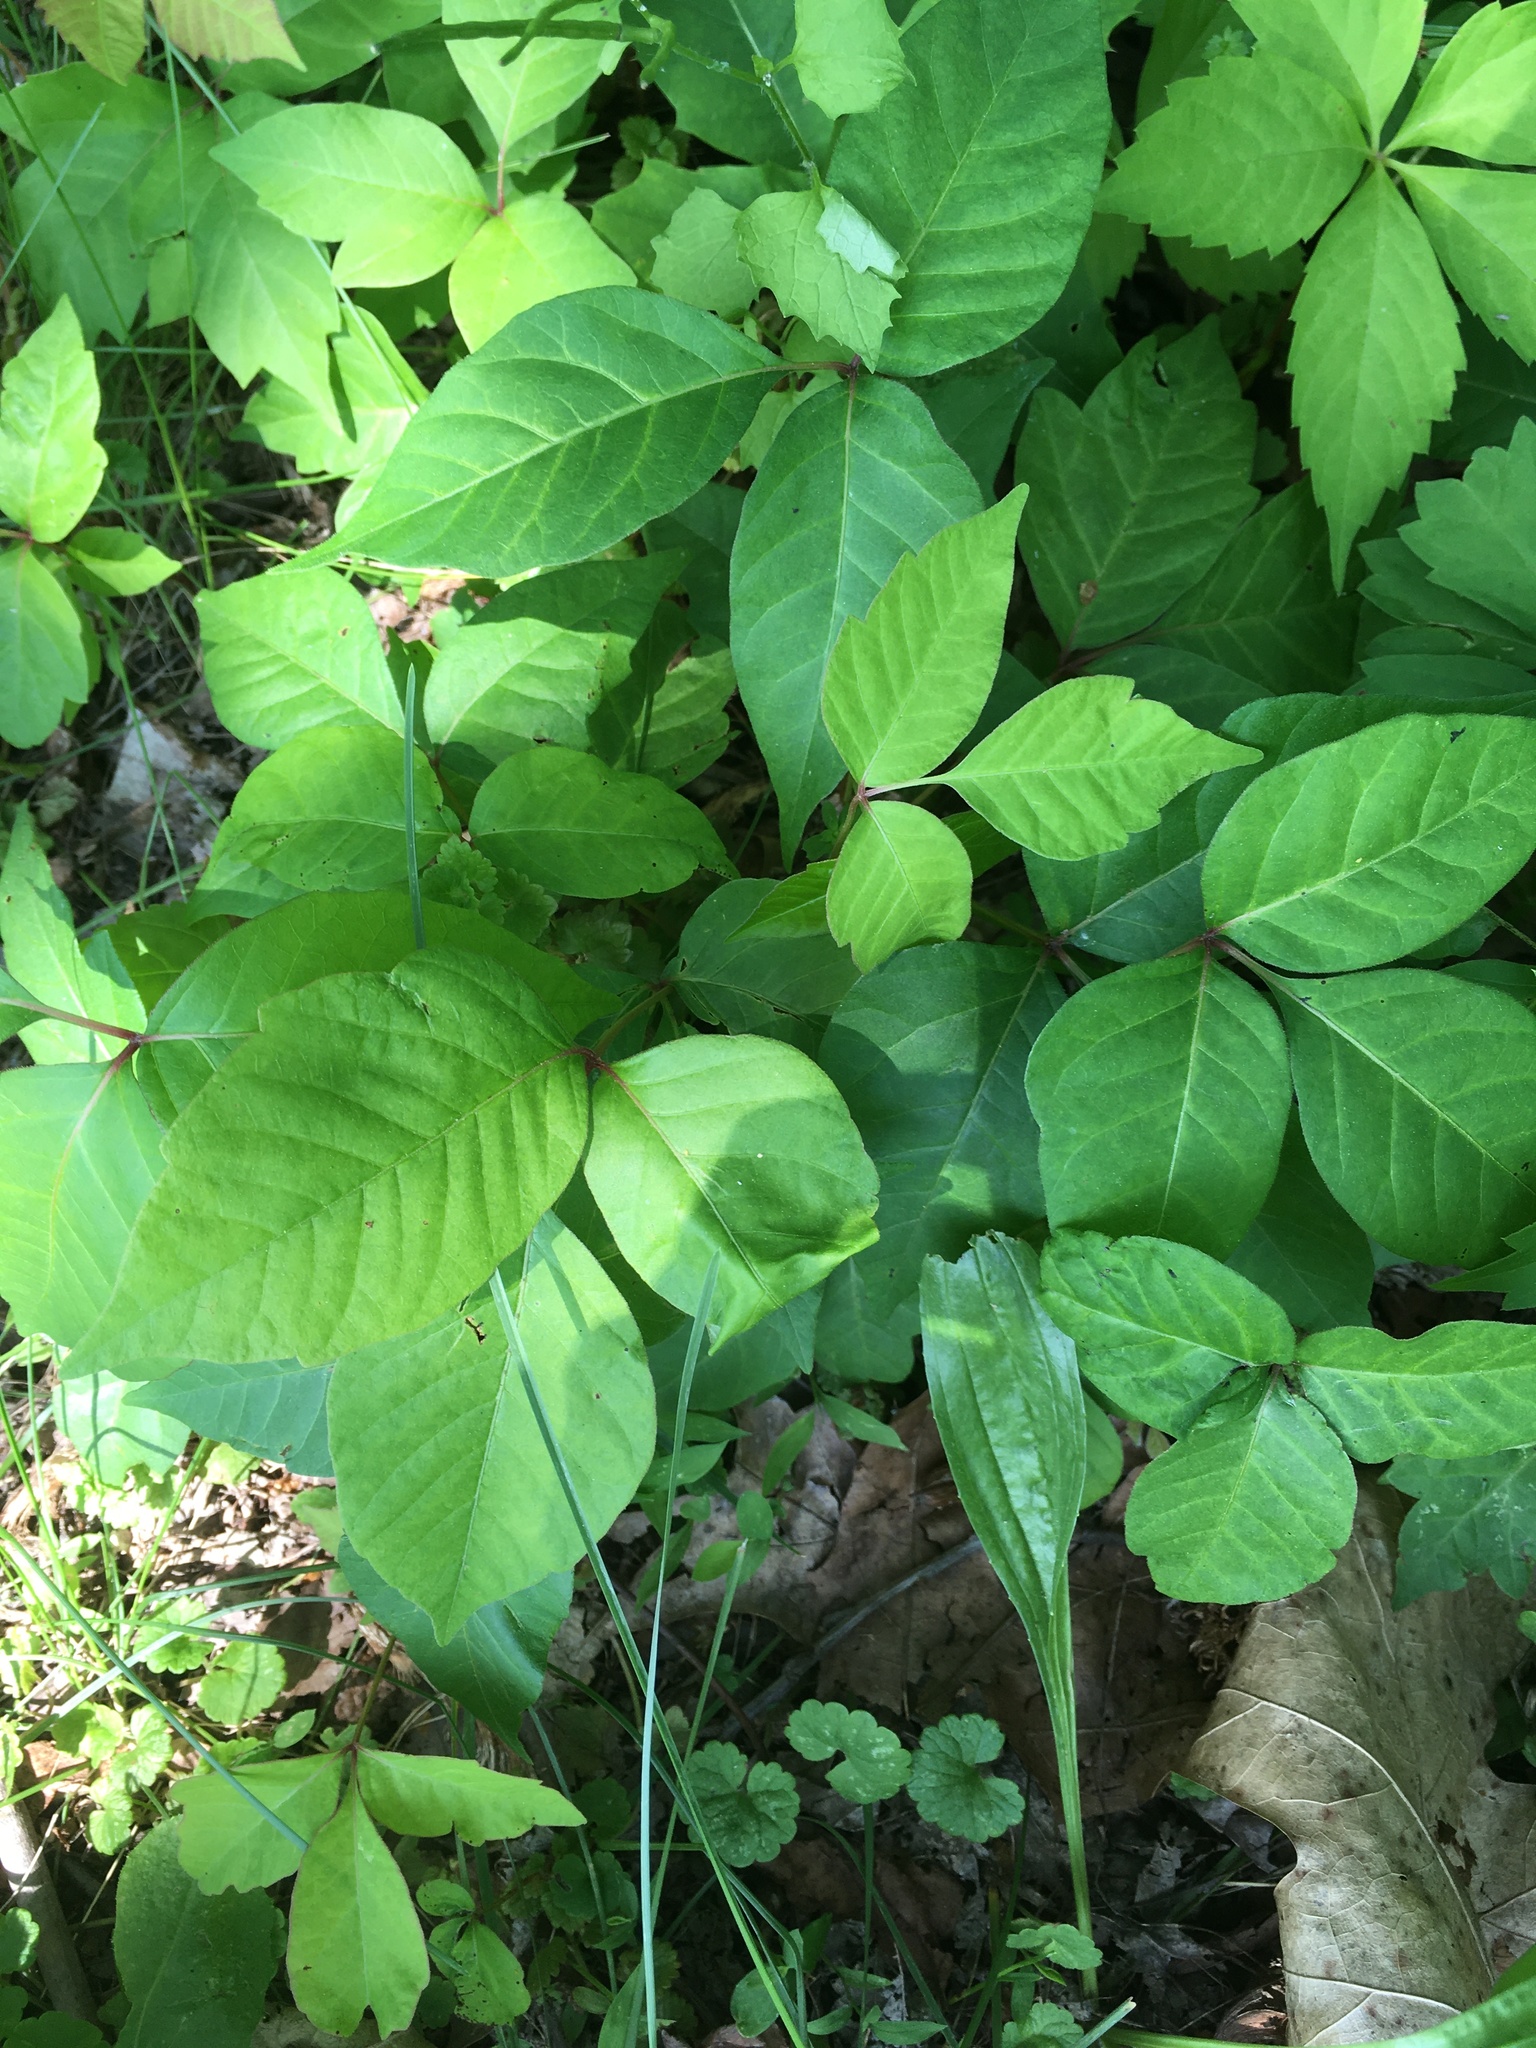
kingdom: Plantae
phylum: Tracheophyta
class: Magnoliopsida
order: Sapindales
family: Anacardiaceae
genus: Toxicodendron
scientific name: Toxicodendron radicans
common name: Poison ivy
